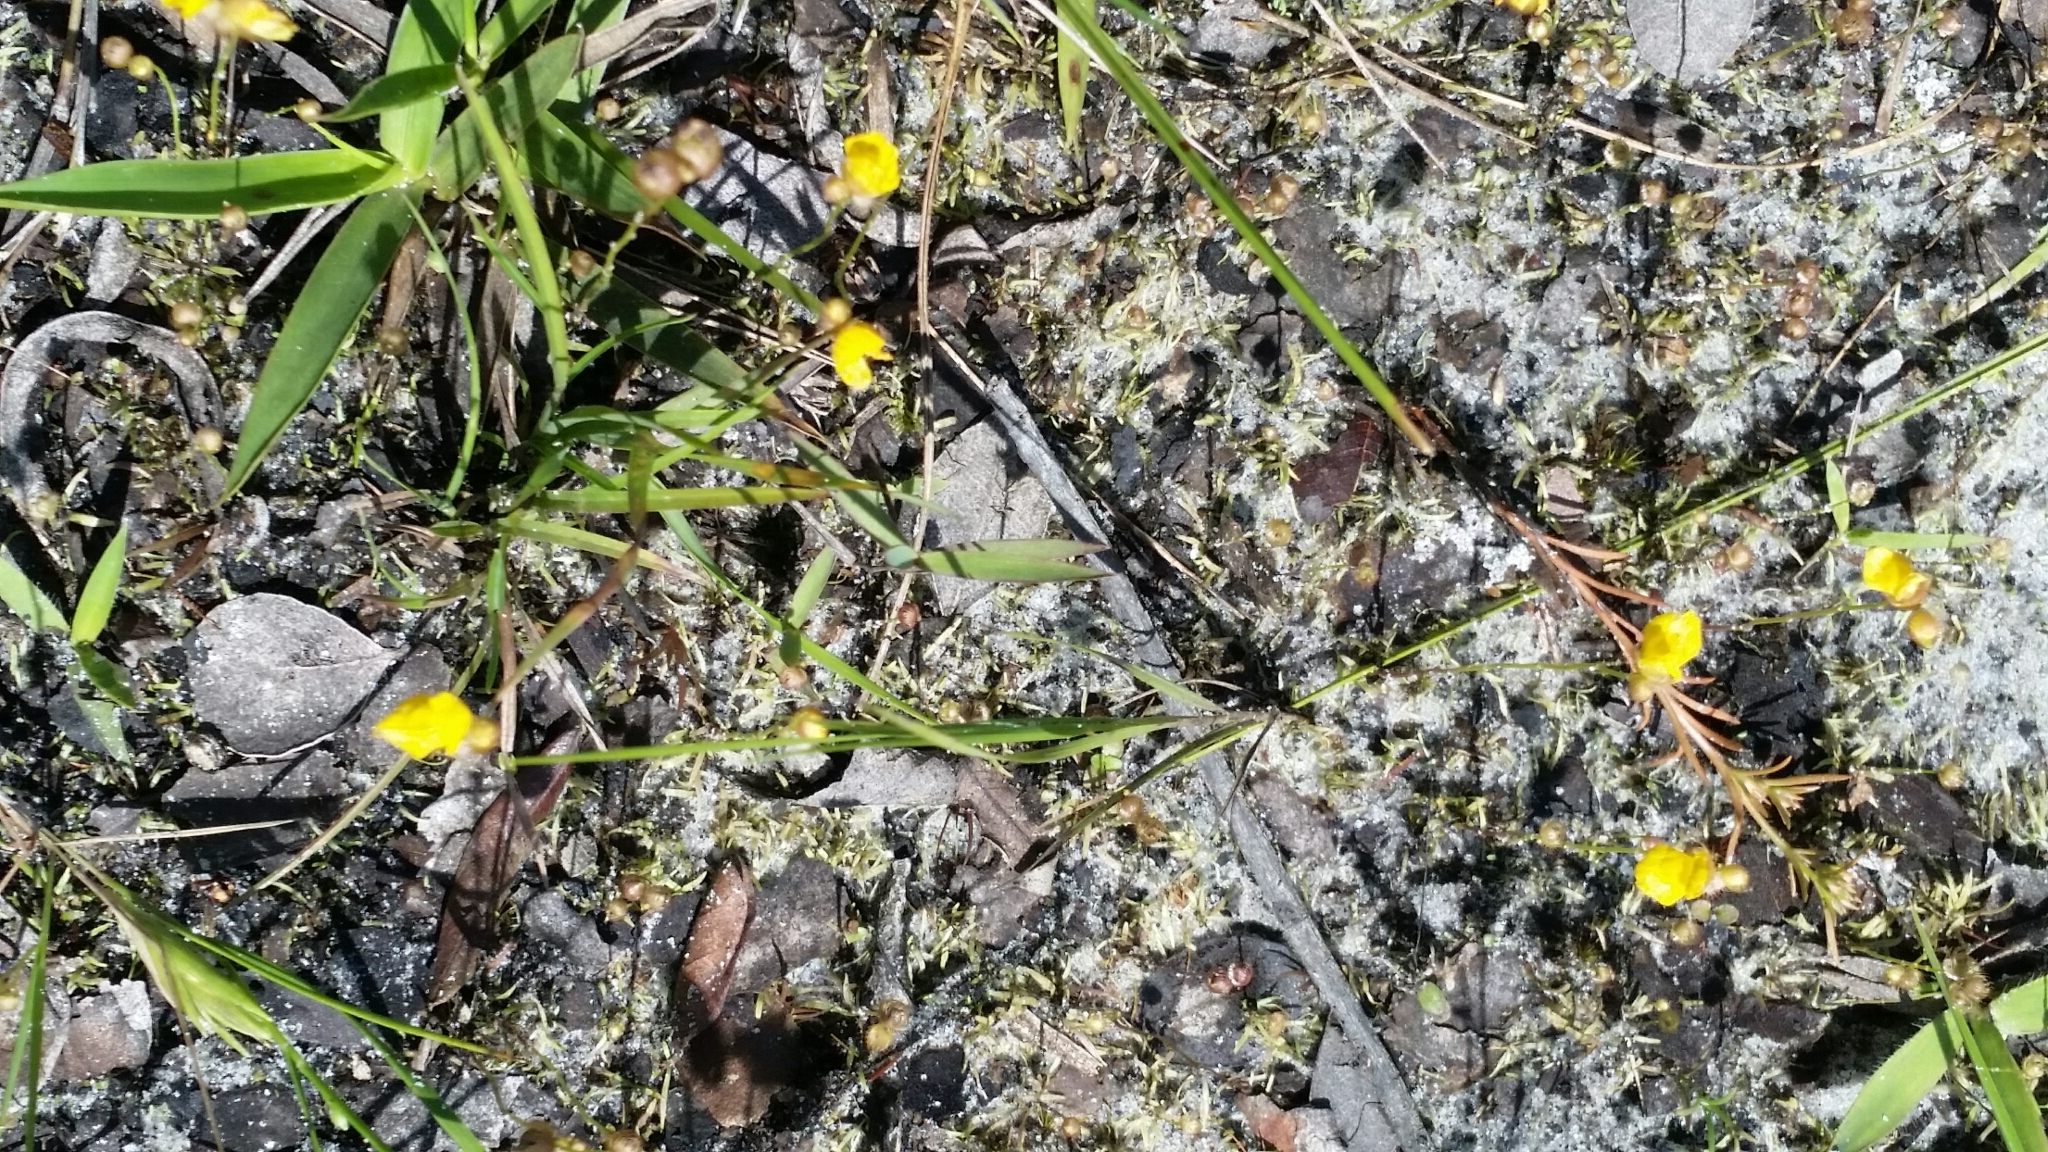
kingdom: Plantae
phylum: Tracheophyta
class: Magnoliopsida
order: Lamiales
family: Lentibulariaceae
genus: Utricularia
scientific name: Utricularia simulans
